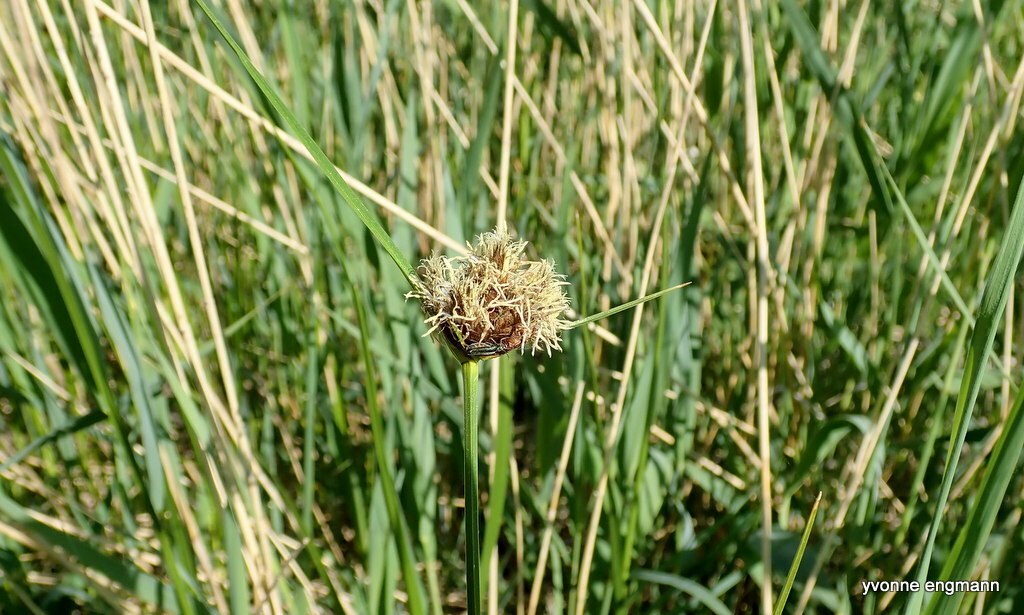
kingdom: Plantae
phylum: Tracheophyta
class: Liliopsida
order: Poales
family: Cyperaceae
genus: Bolboschoenus
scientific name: Bolboschoenus maritimus
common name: Sea club-rush
